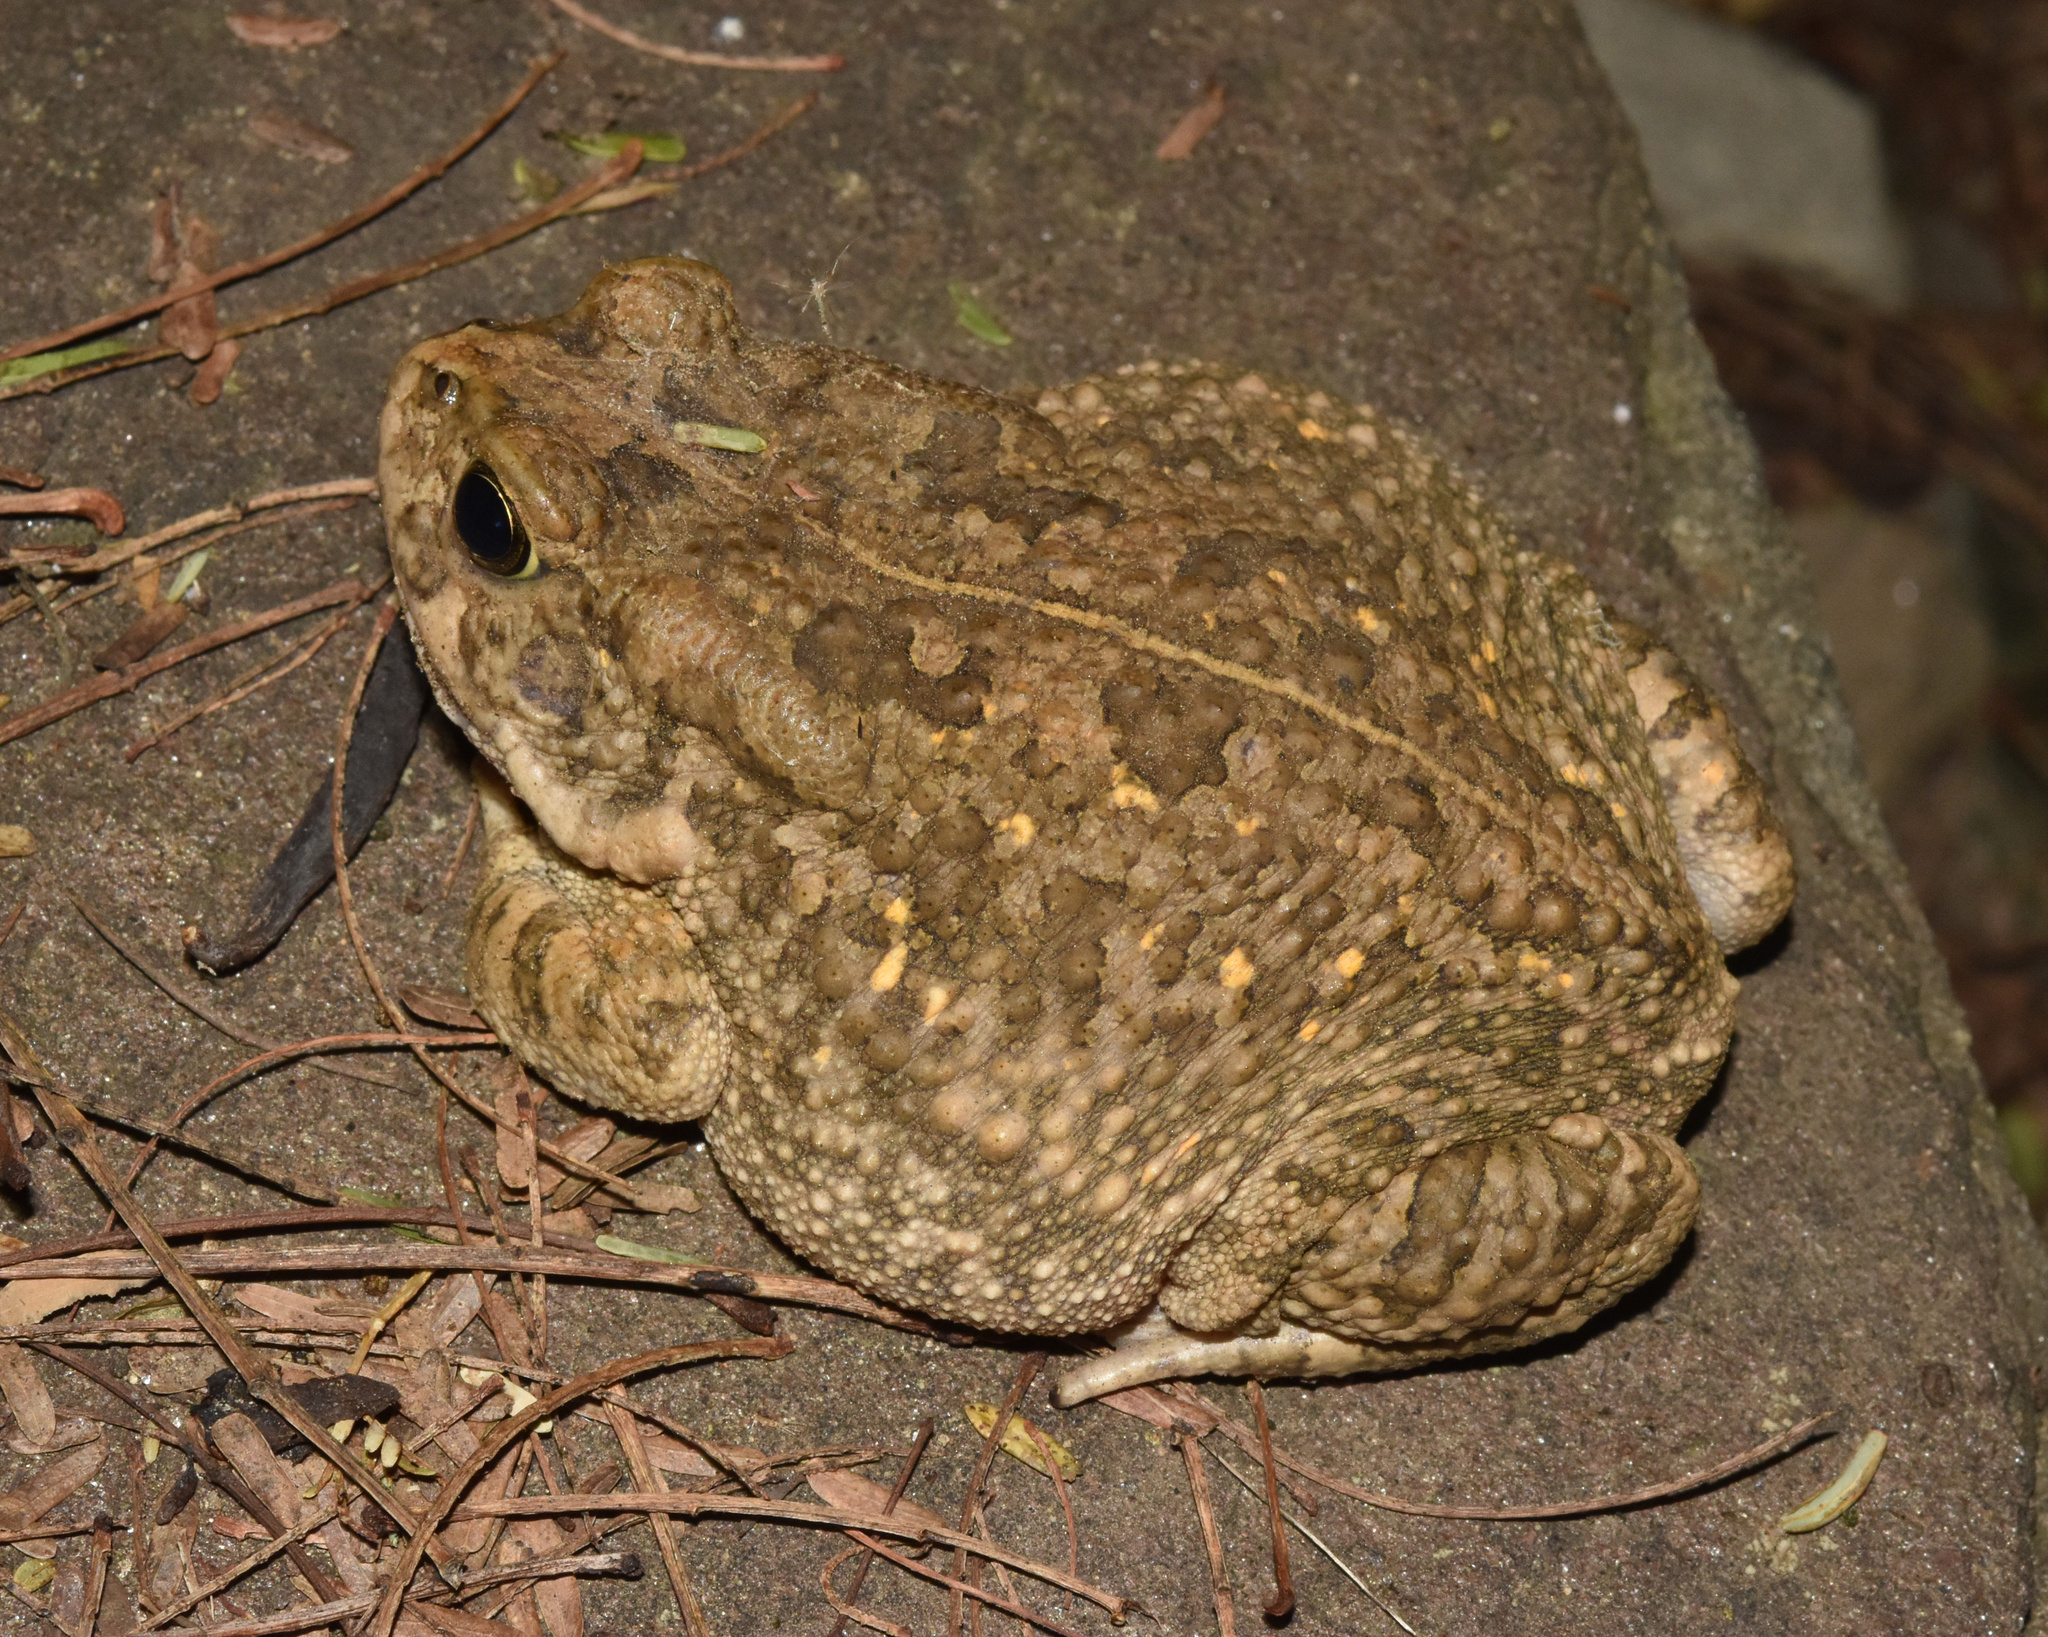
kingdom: Animalia
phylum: Chordata
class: Amphibia
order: Anura
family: Bufonidae
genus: Sclerophrys
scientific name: Sclerophrys gutturalis
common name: African common toad
